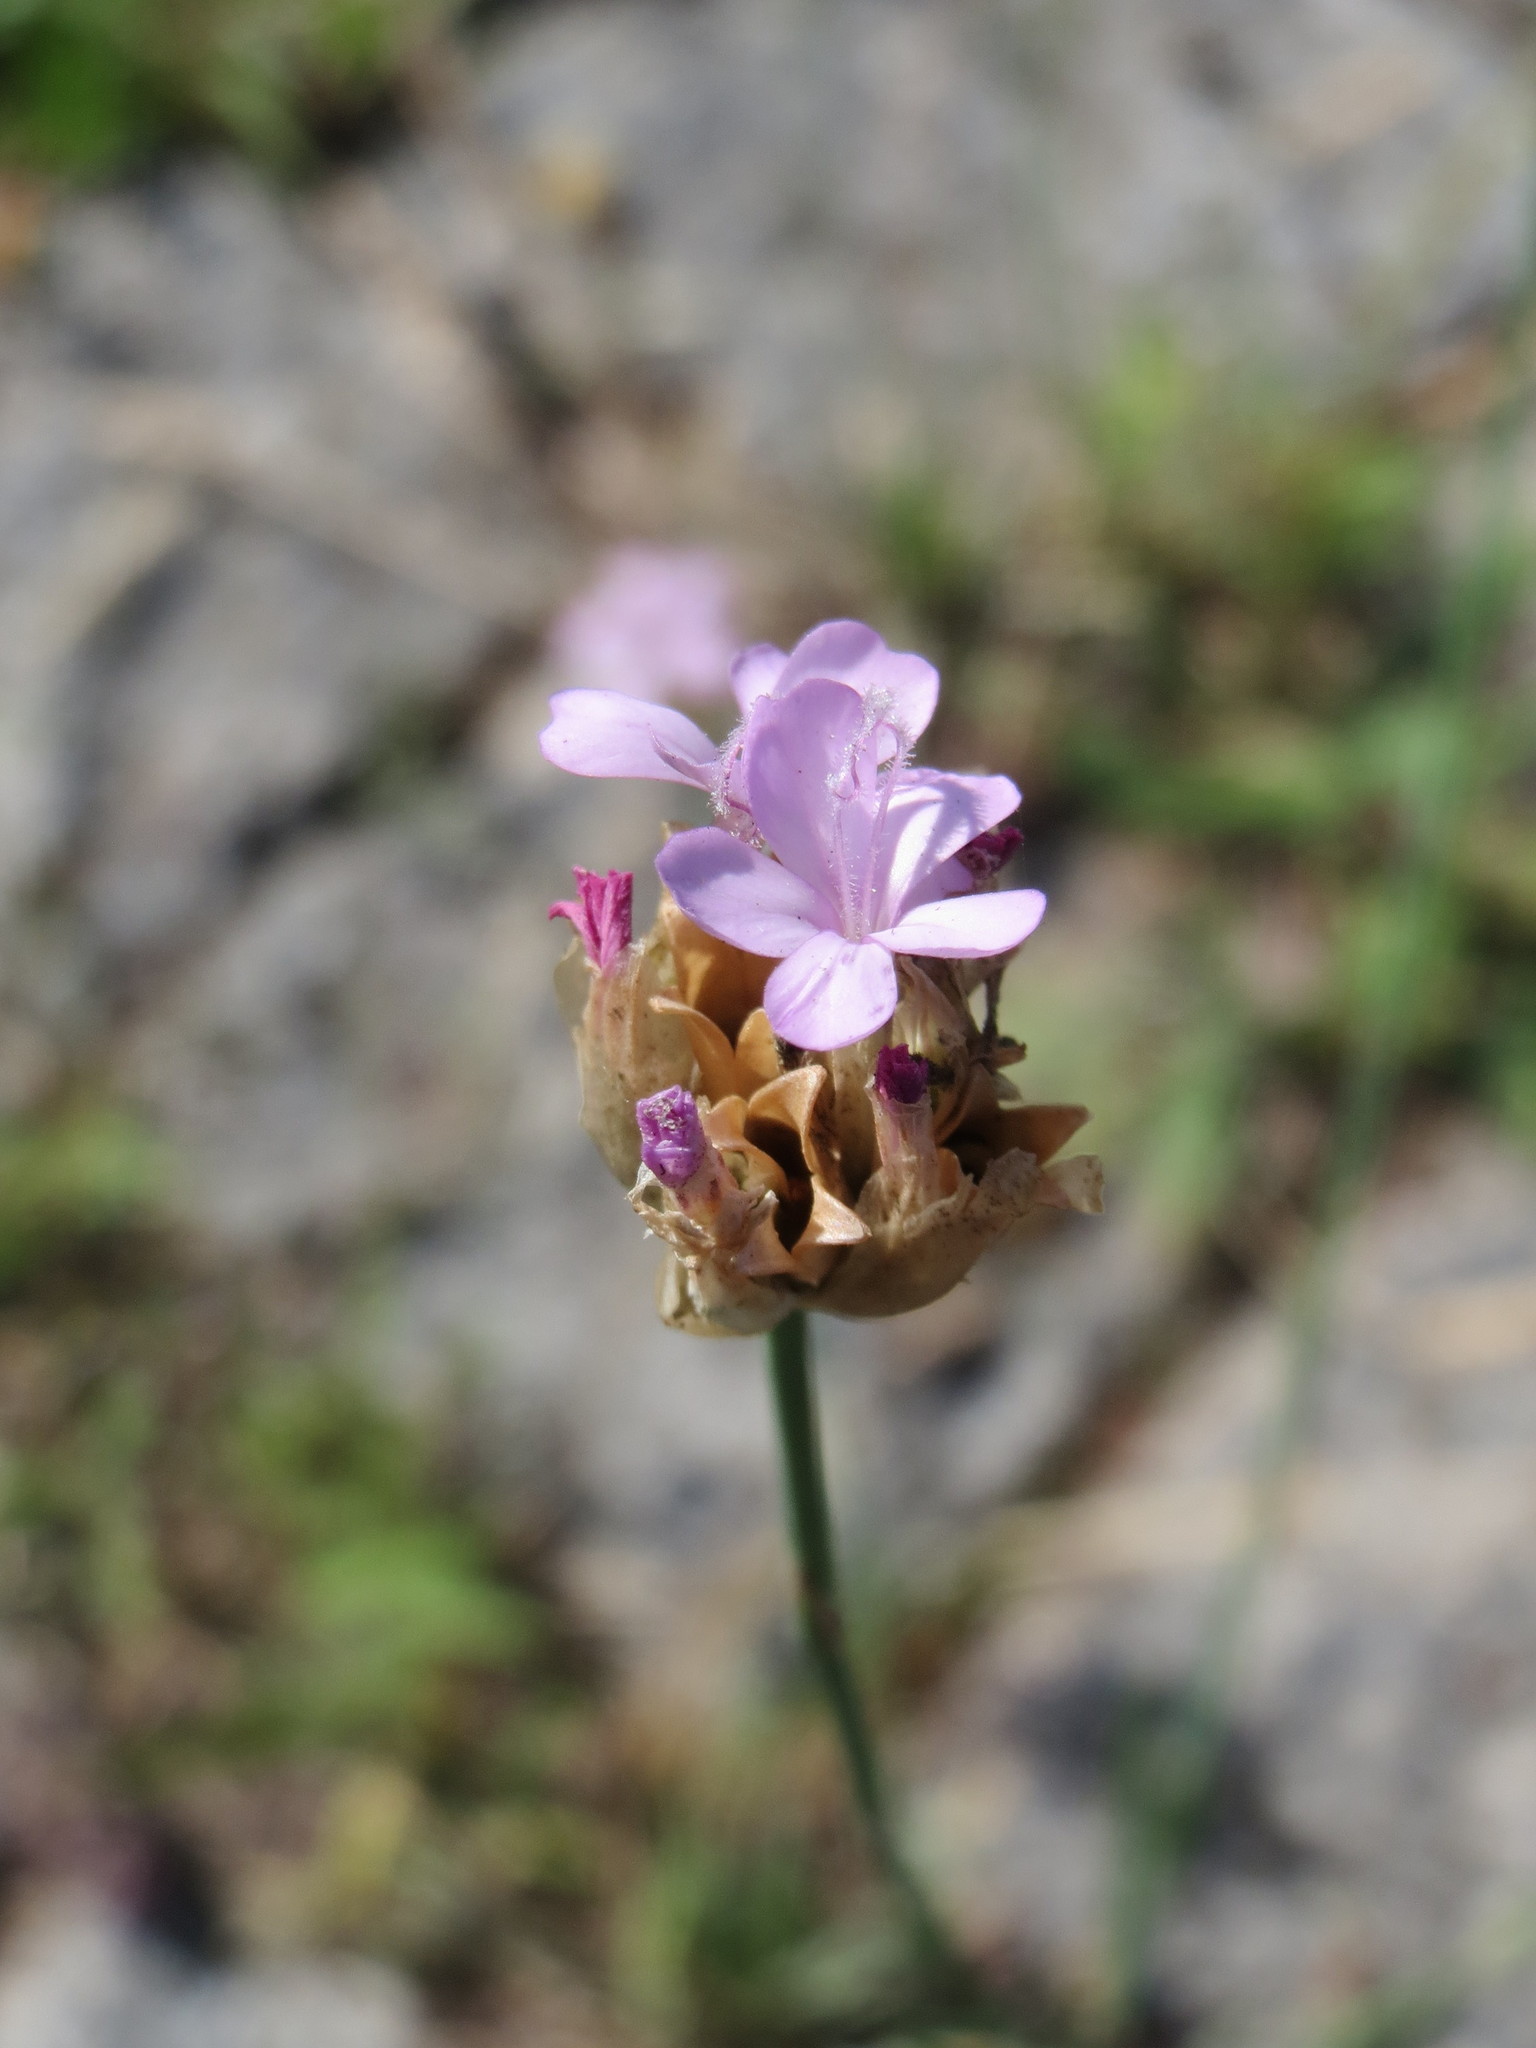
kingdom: Plantae
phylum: Tracheophyta
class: Magnoliopsida
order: Caryophyllales
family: Caryophyllaceae
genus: Petrorhagia
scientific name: Petrorhagia prolifera
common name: Proliferous pink
